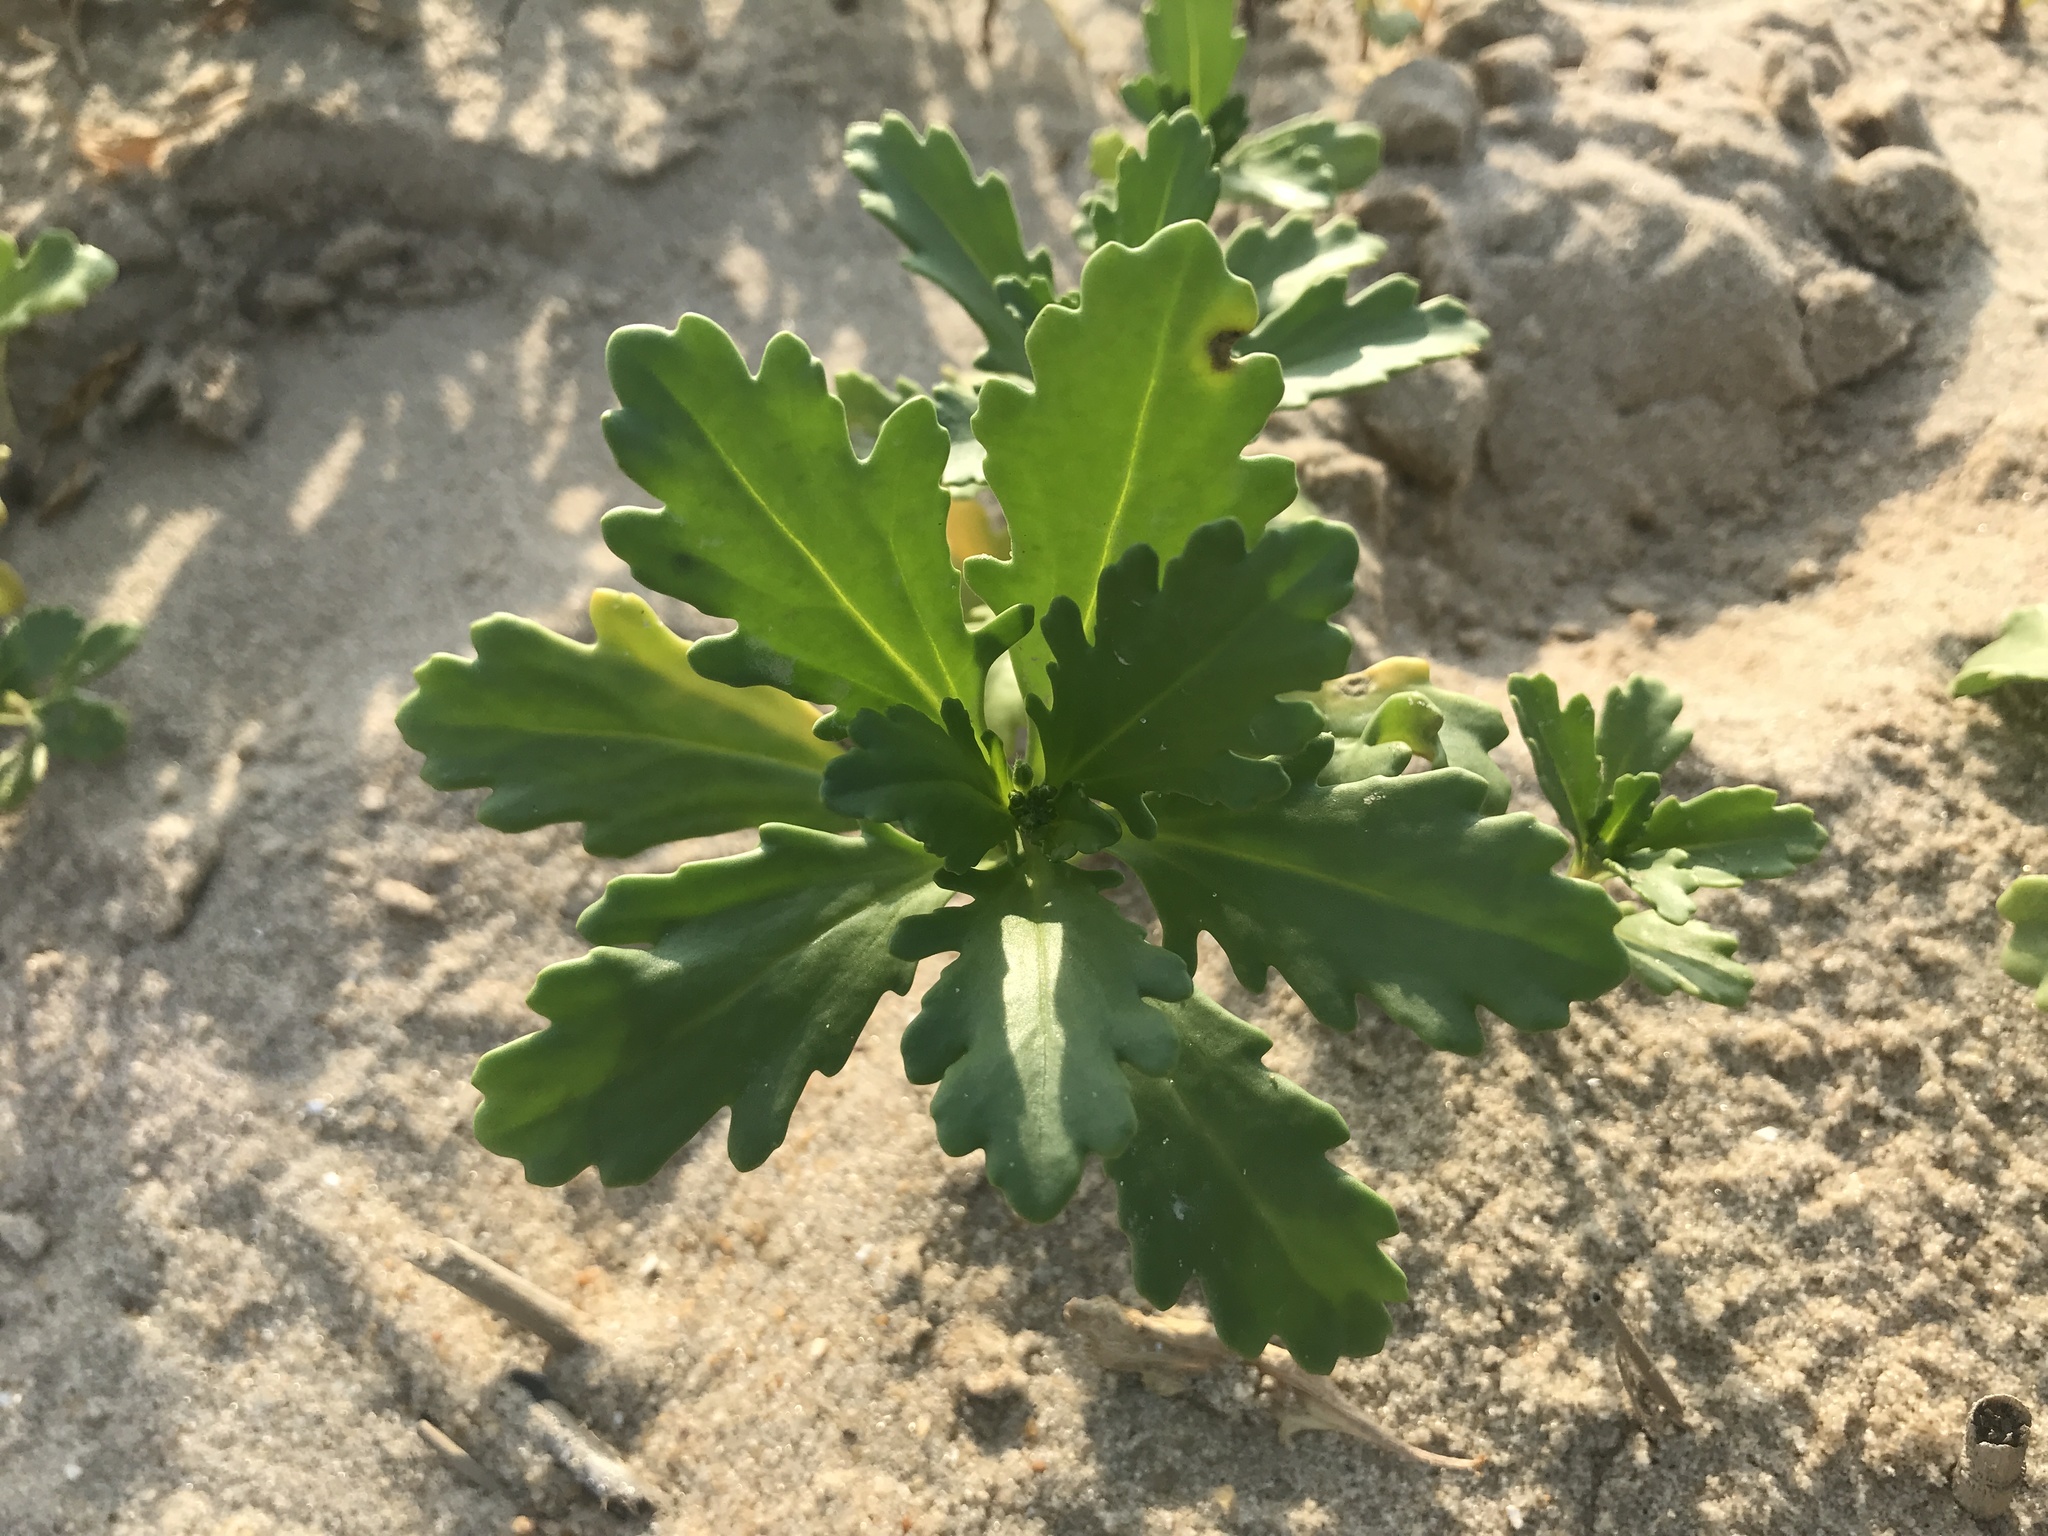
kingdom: Plantae
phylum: Tracheophyta
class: Magnoliopsida
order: Brassicales
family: Brassicaceae
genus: Cakile
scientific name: Cakile edentula
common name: American sea rocket
